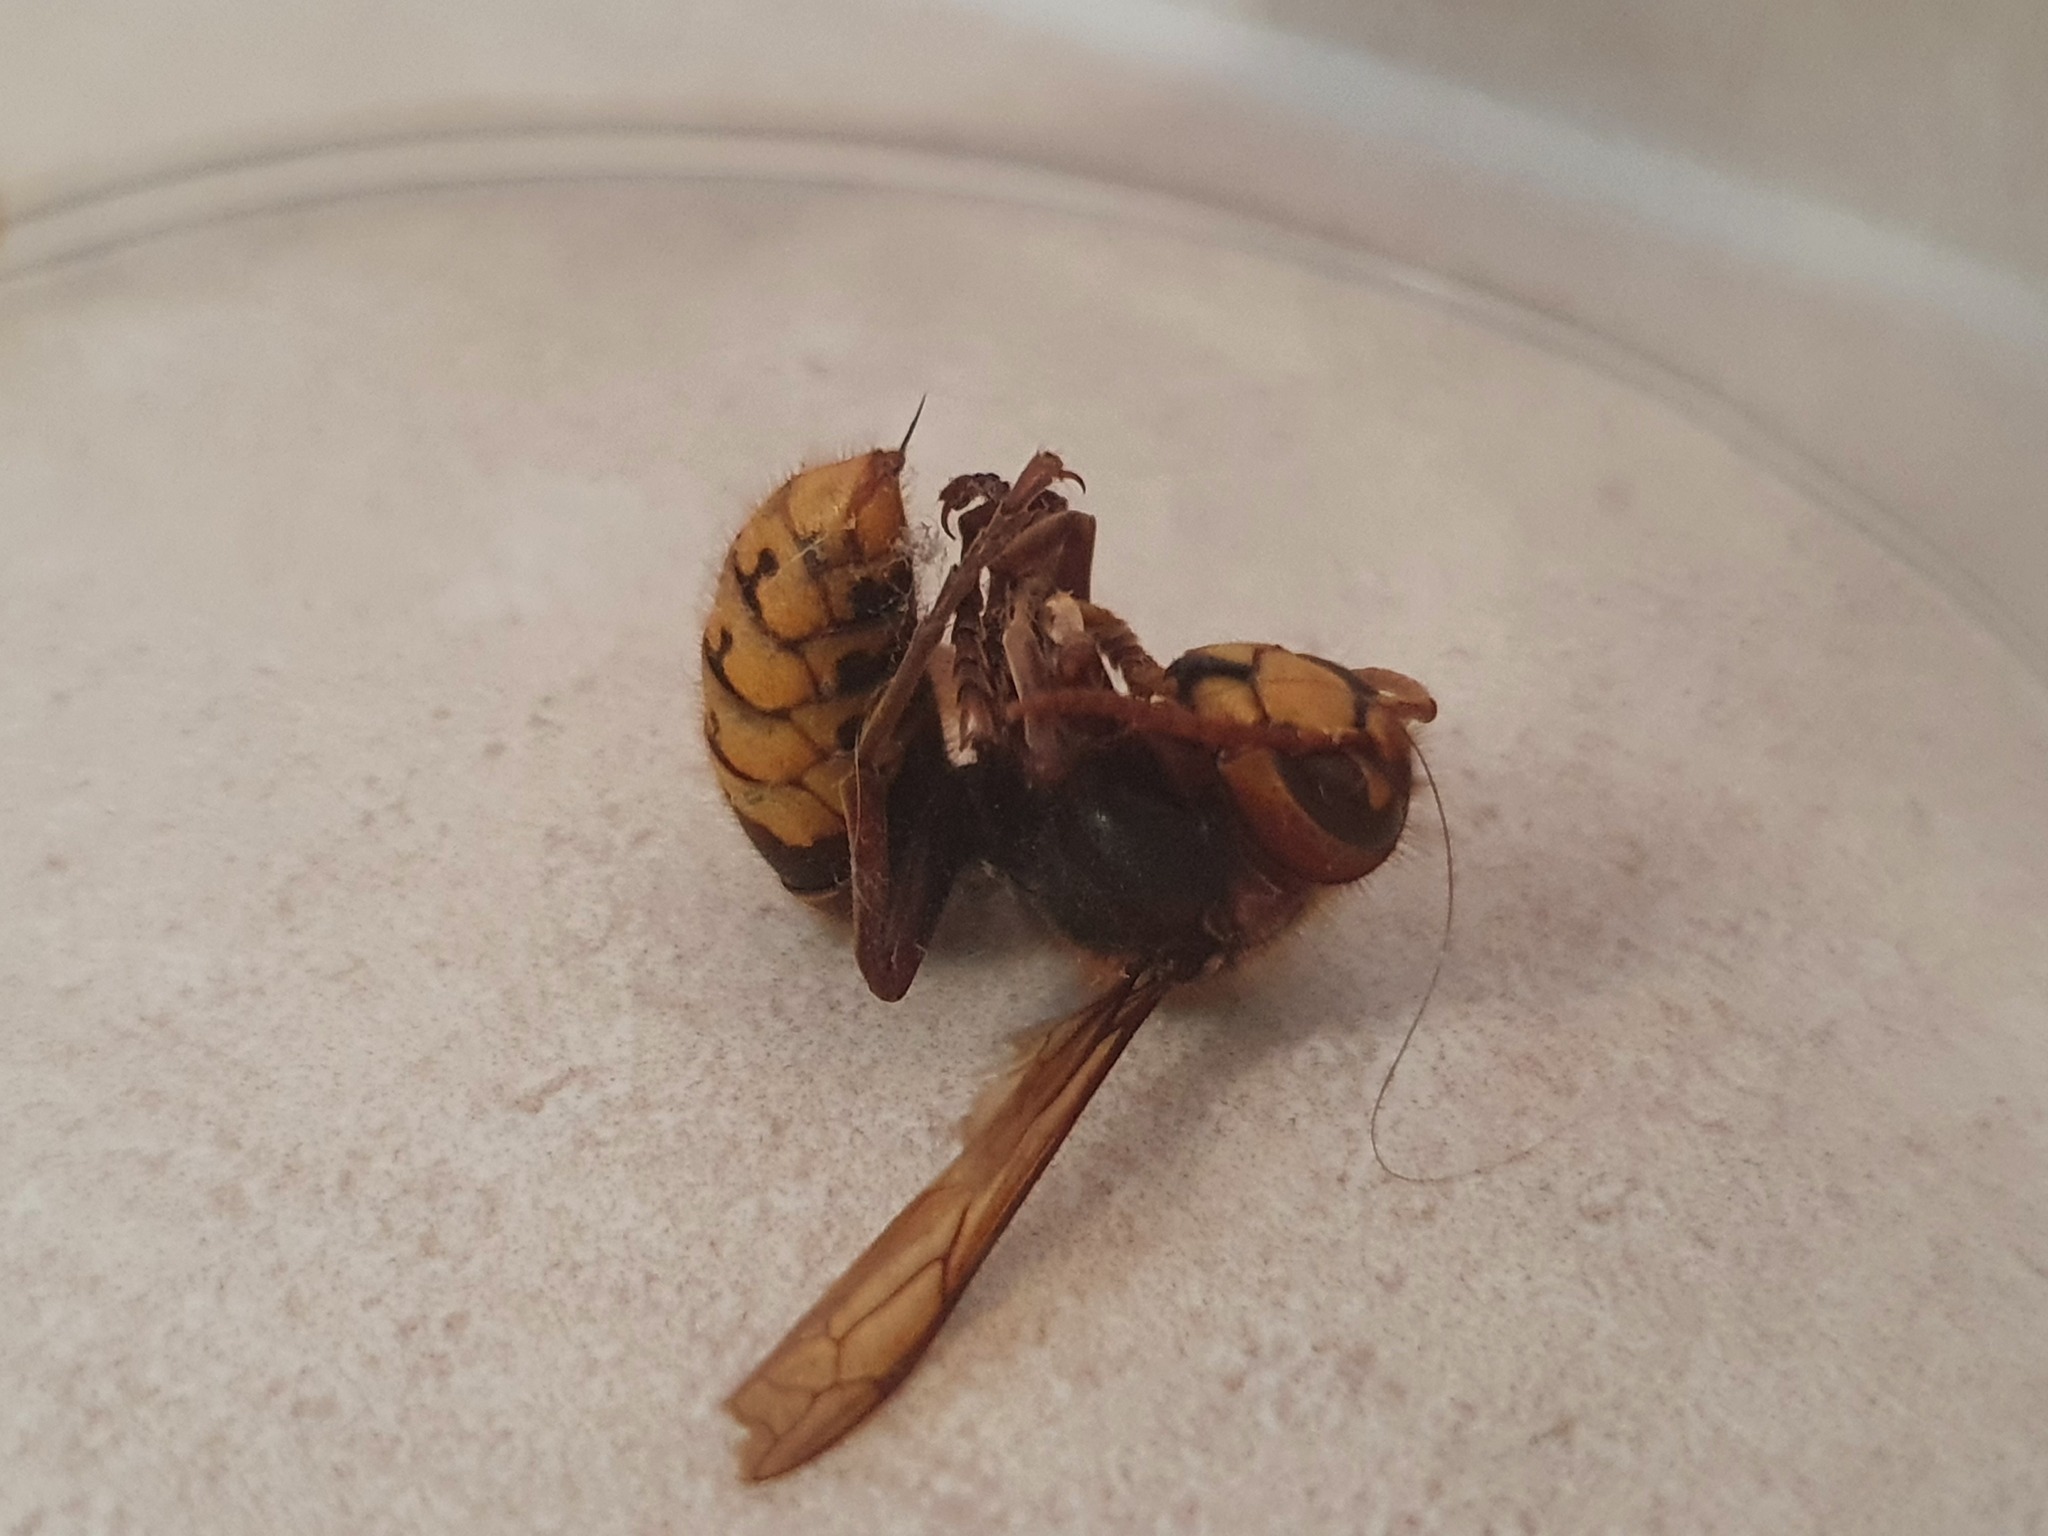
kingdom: Animalia
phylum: Arthropoda
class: Insecta
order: Hymenoptera
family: Vespidae
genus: Vespa
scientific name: Vespa crabro
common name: Hornet
